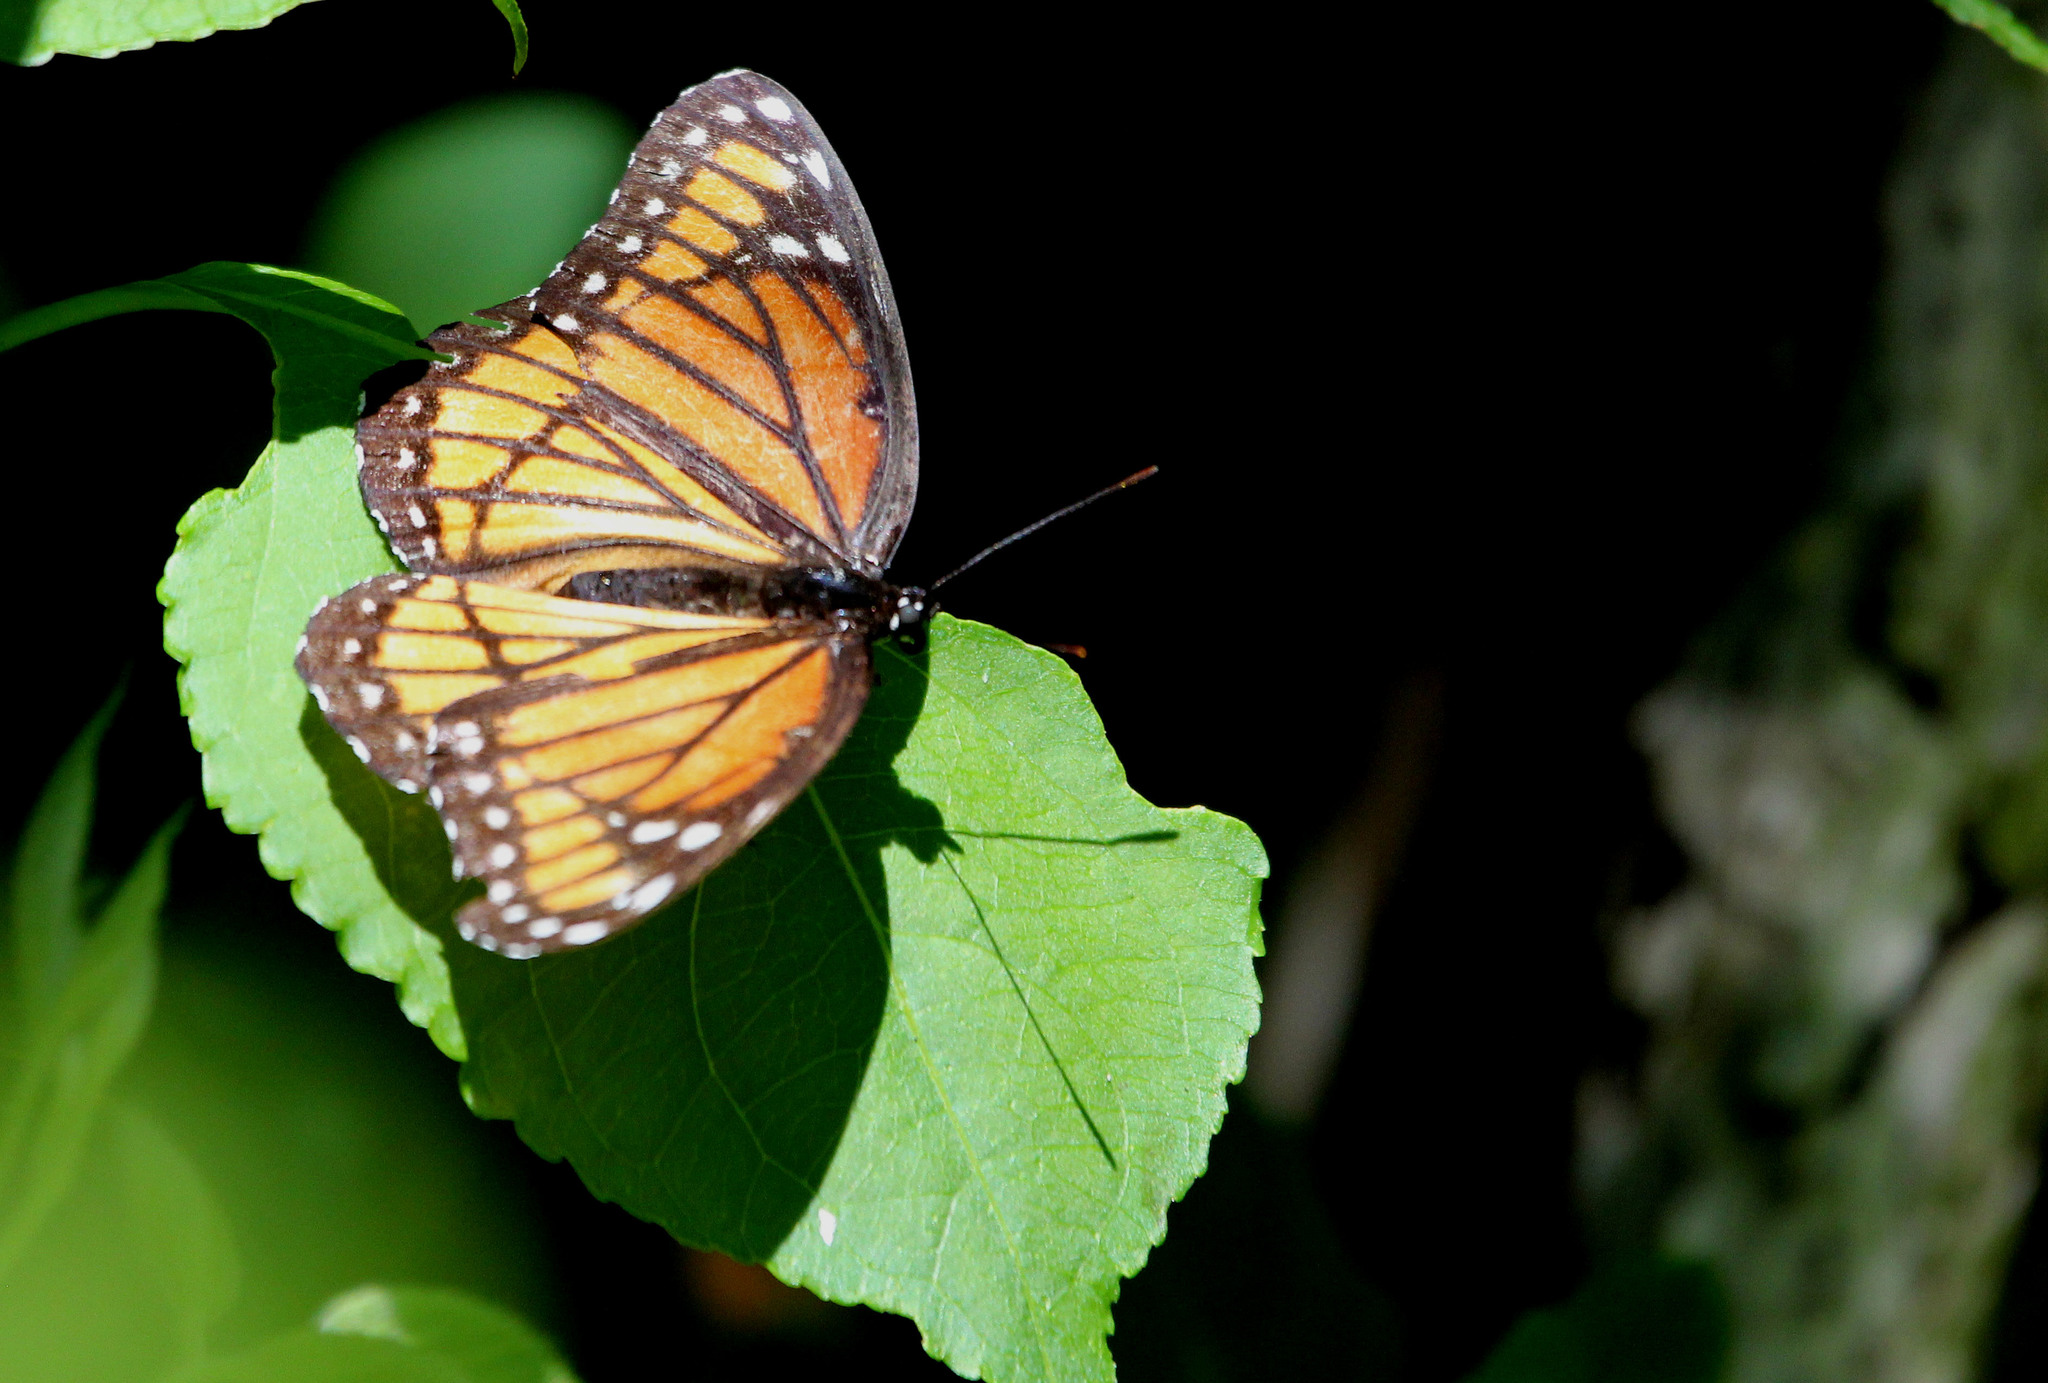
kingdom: Animalia
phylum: Arthropoda
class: Insecta
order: Lepidoptera
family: Nymphalidae
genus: Limenitis
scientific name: Limenitis archippus
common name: Viceroy
